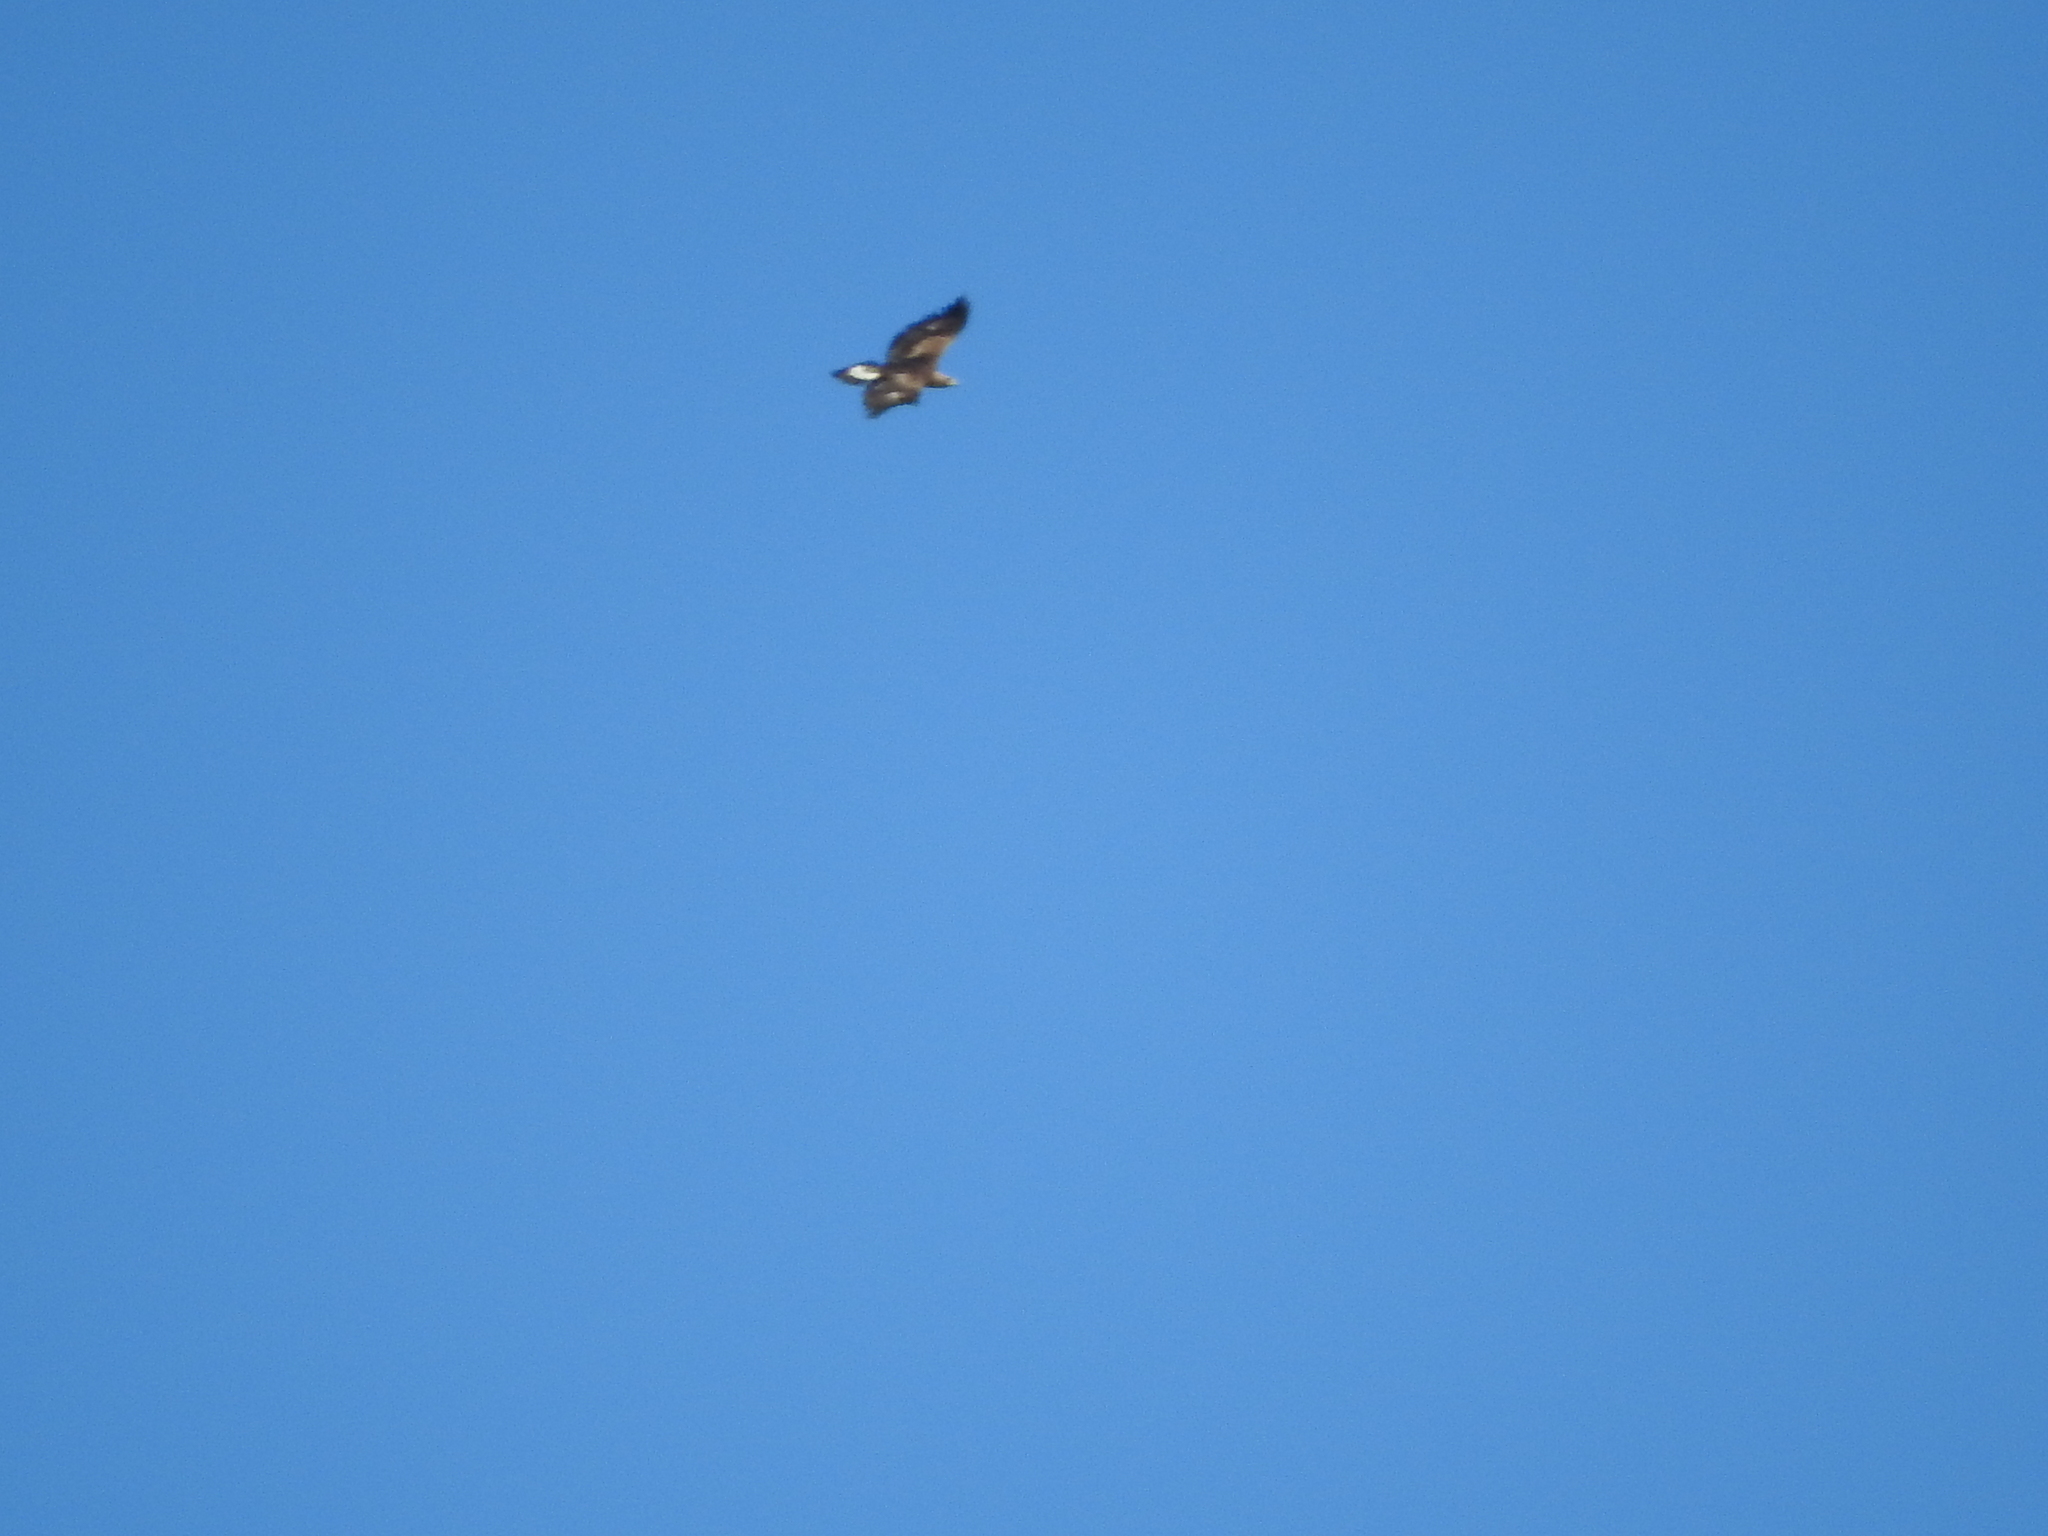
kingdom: Animalia
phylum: Chordata
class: Aves
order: Accipitriformes
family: Accipitridae
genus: Aquila
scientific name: Aquila chrysaetos
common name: Golden eagle
